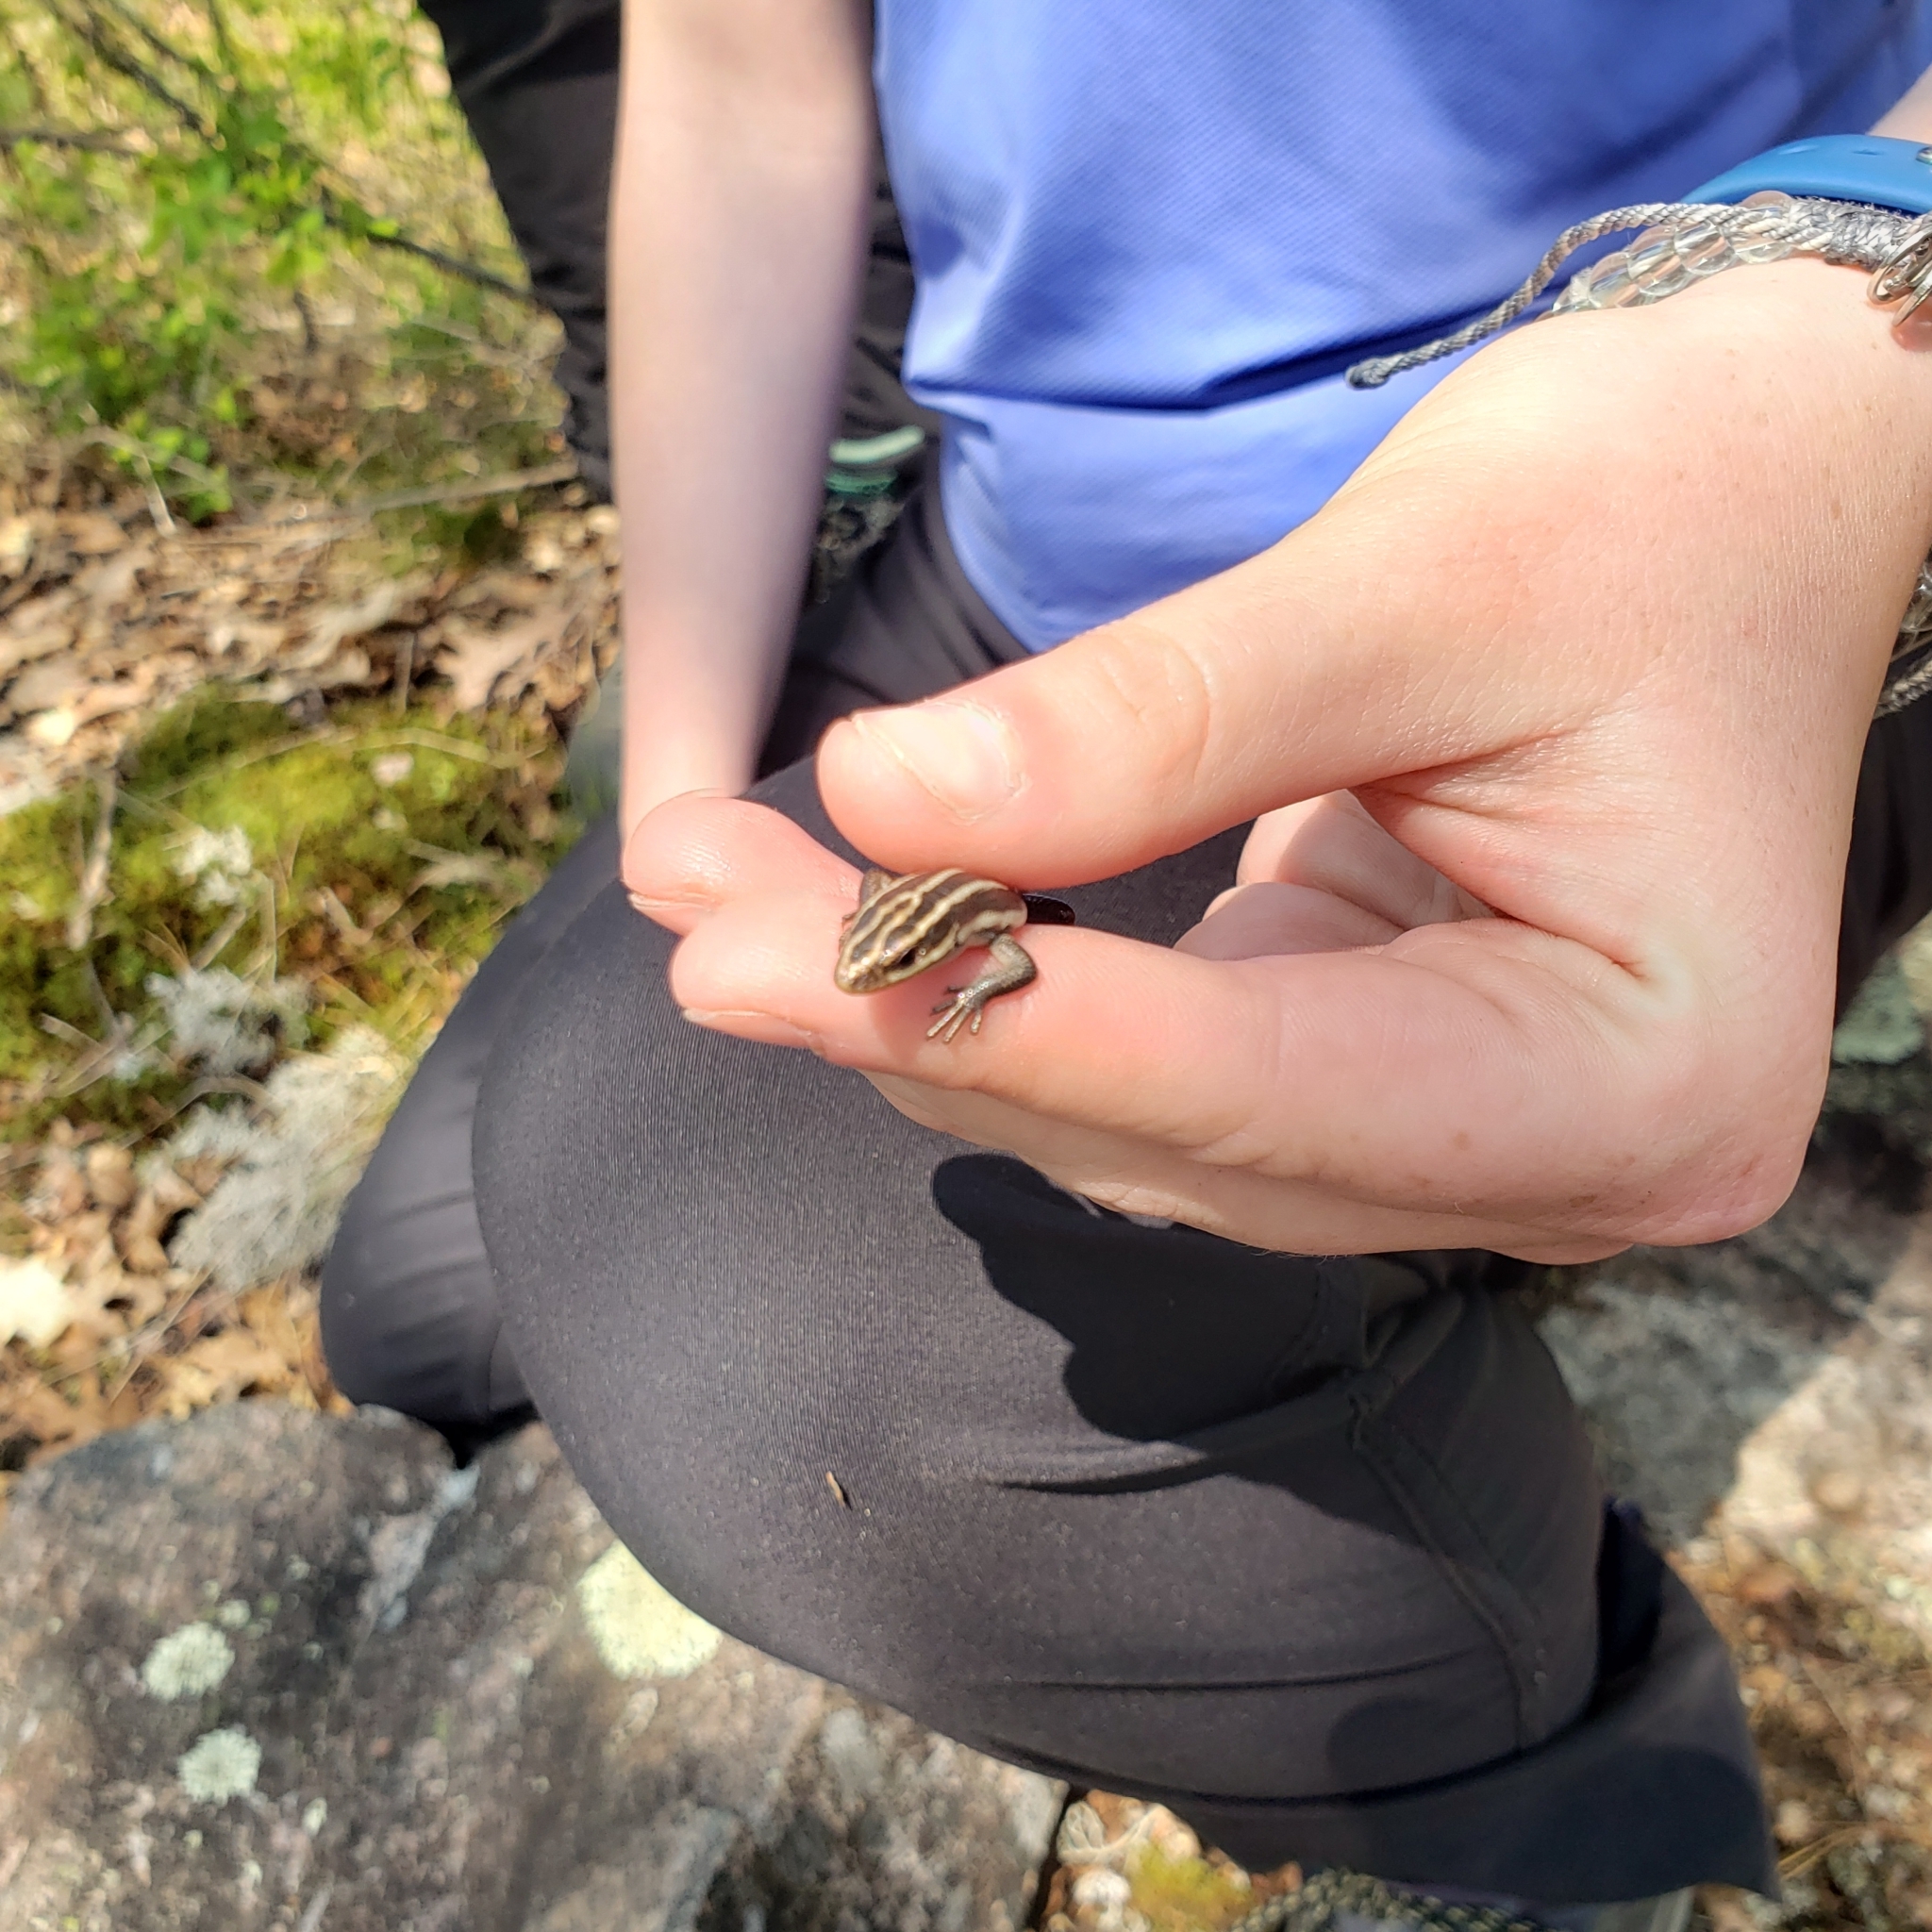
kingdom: Animalia
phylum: Chordata
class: Squamata
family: Scincidae
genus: Plestiodon
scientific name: Plestiodon fasciatus
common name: Five-lined skink
